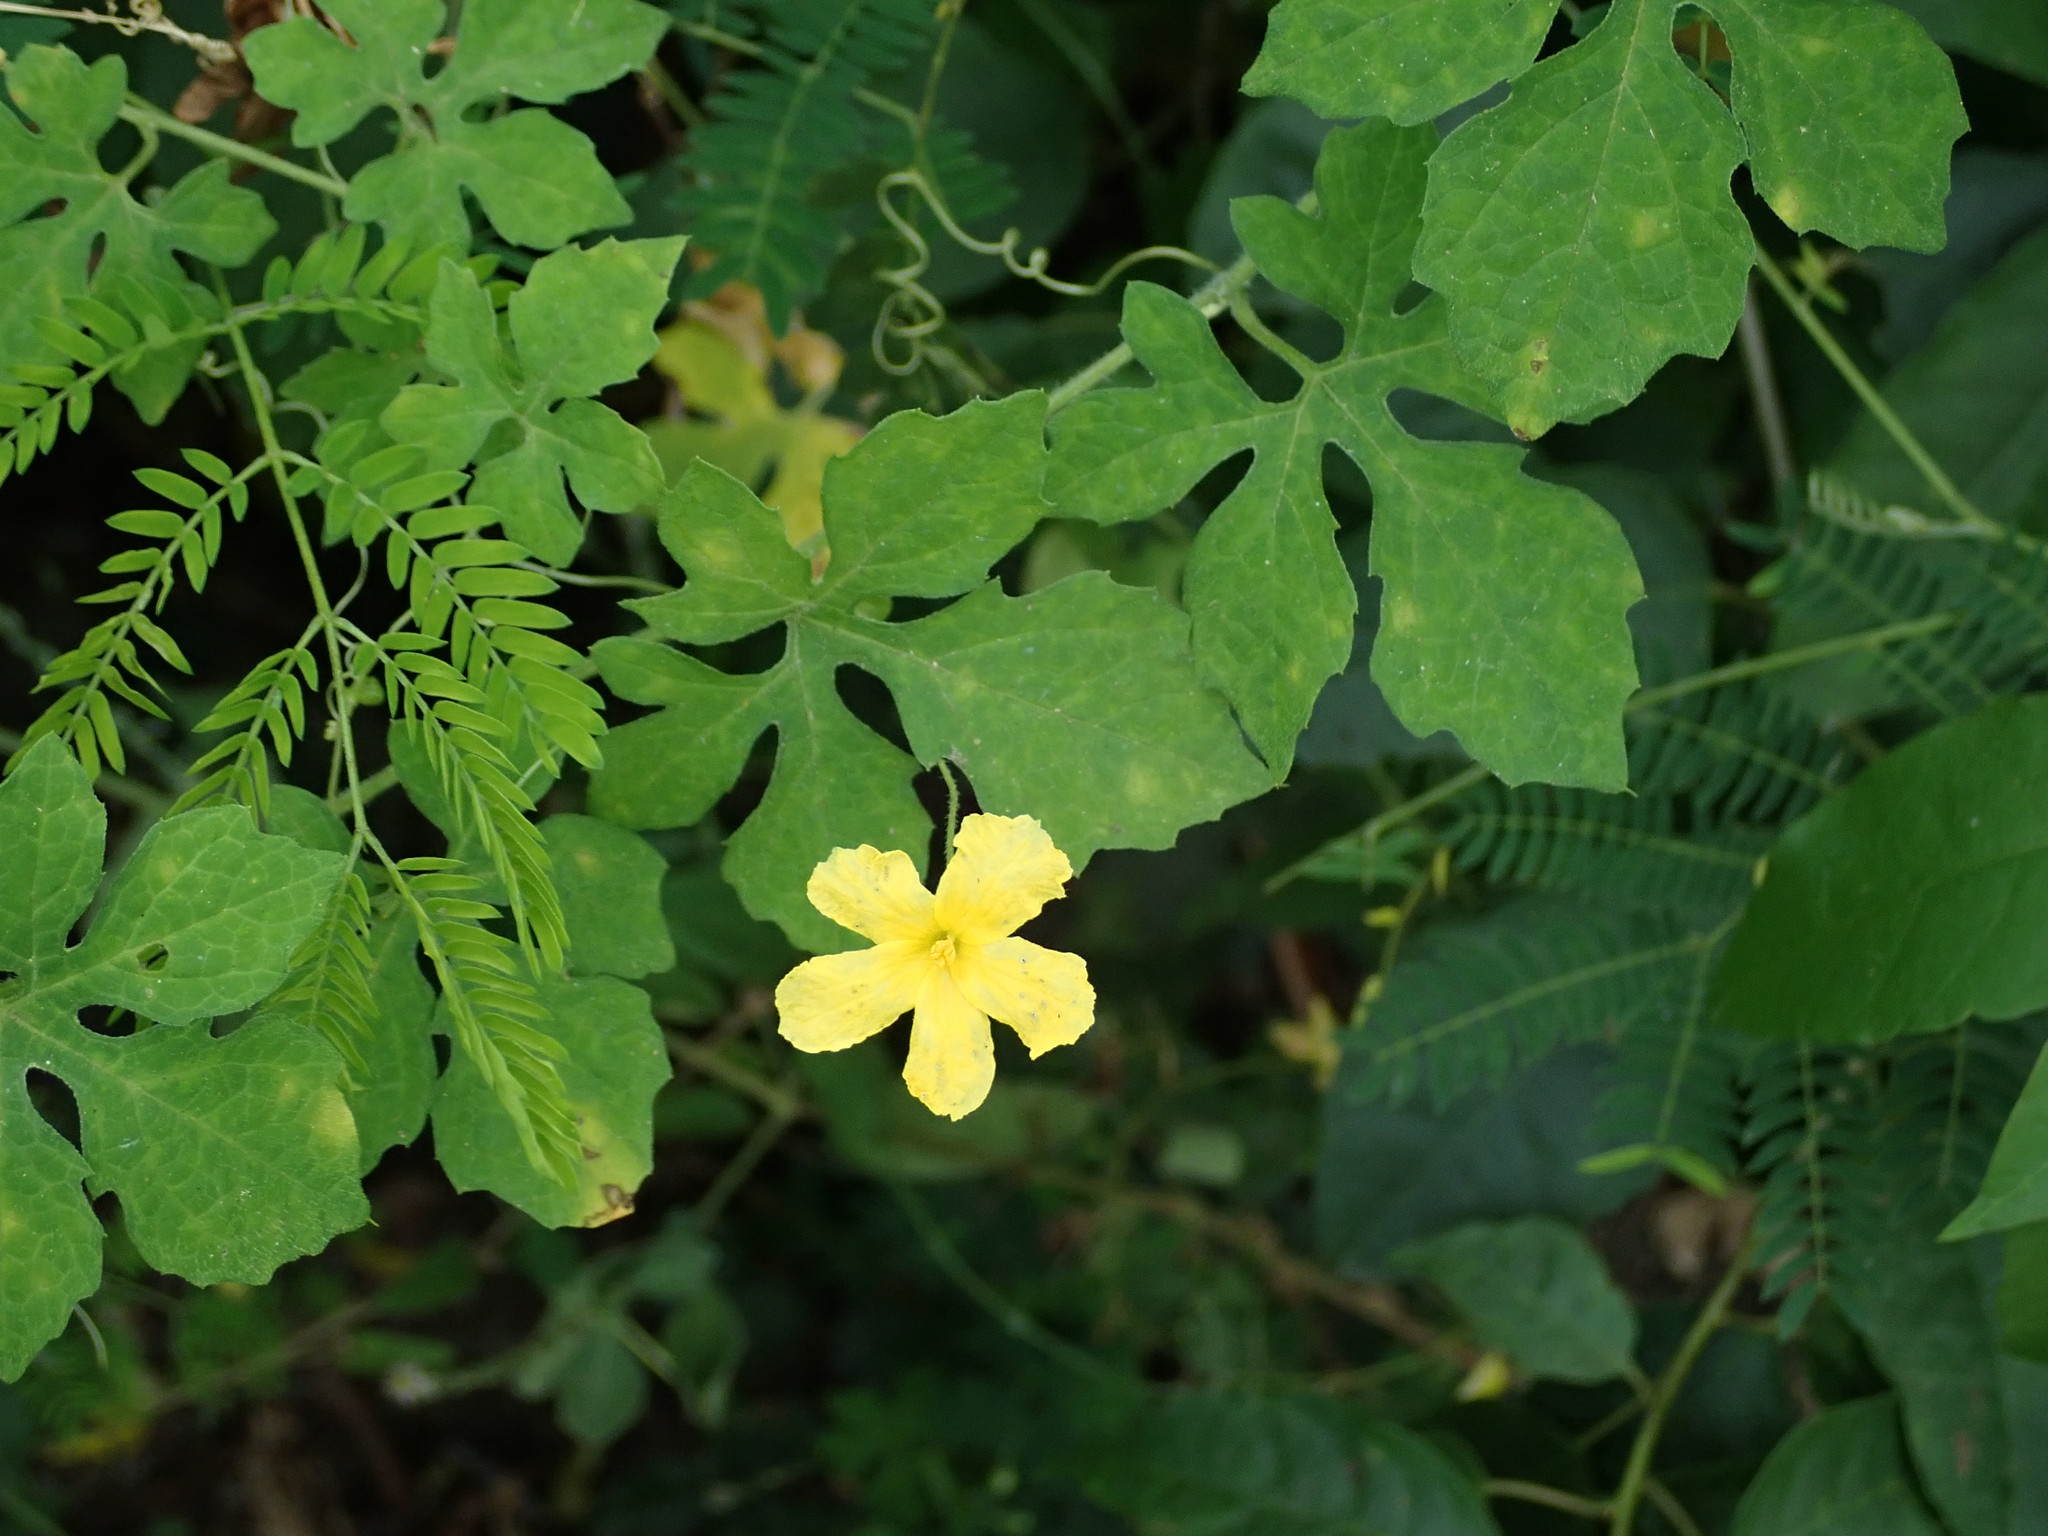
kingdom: Plantae
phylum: Tracheophyta
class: Magnoliopsida
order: Cucurbitales
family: Cucurbitaceae
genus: Momordica
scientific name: Momordica charantia
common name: Balsampear
